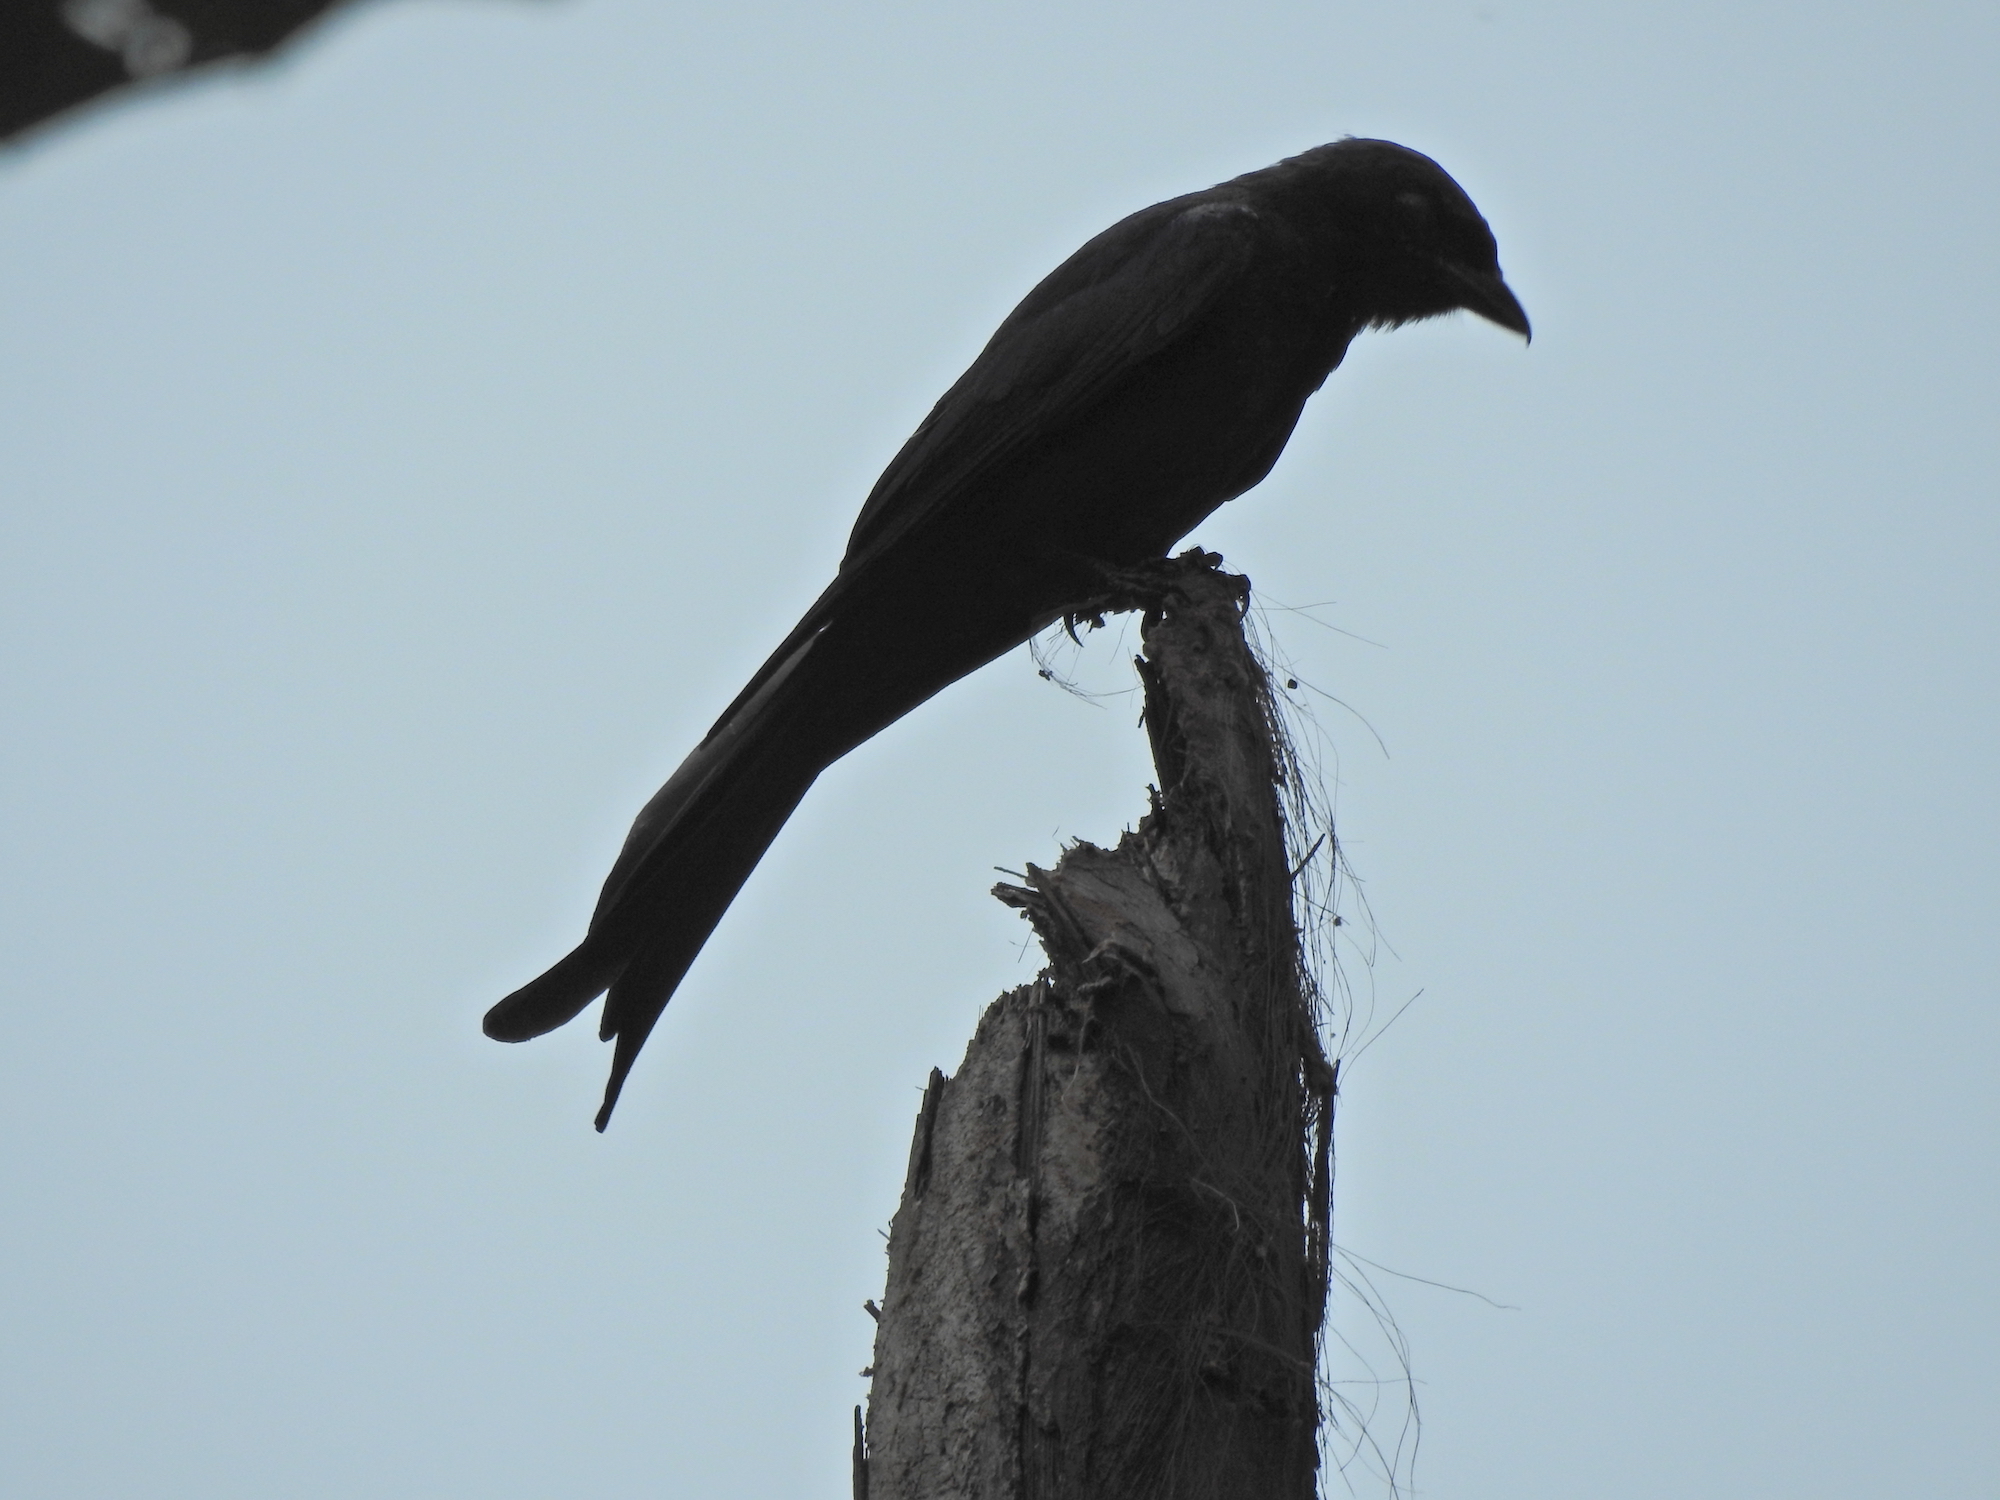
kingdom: Animalia
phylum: Chordata
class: Aves
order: Passeriformes
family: Dicruridae
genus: Dicrurus
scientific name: Dicrurus leucophaeus
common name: Ashy drongo
